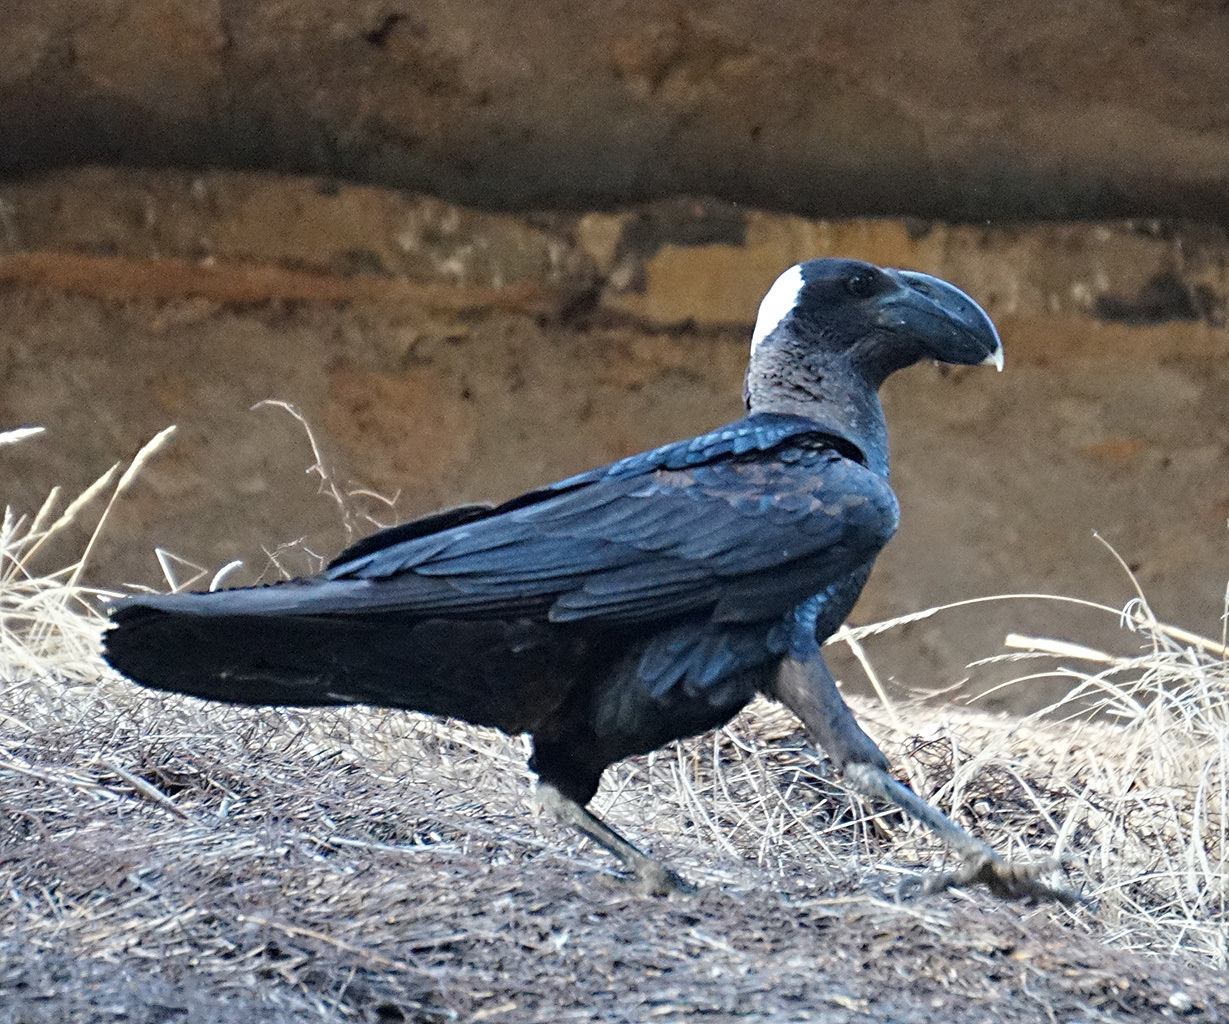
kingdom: Animalia
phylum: Chordata
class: Aves
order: Passeriformes
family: Corvidae
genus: Corvus
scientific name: Corvus crassirostris
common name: Thick-billed raven
